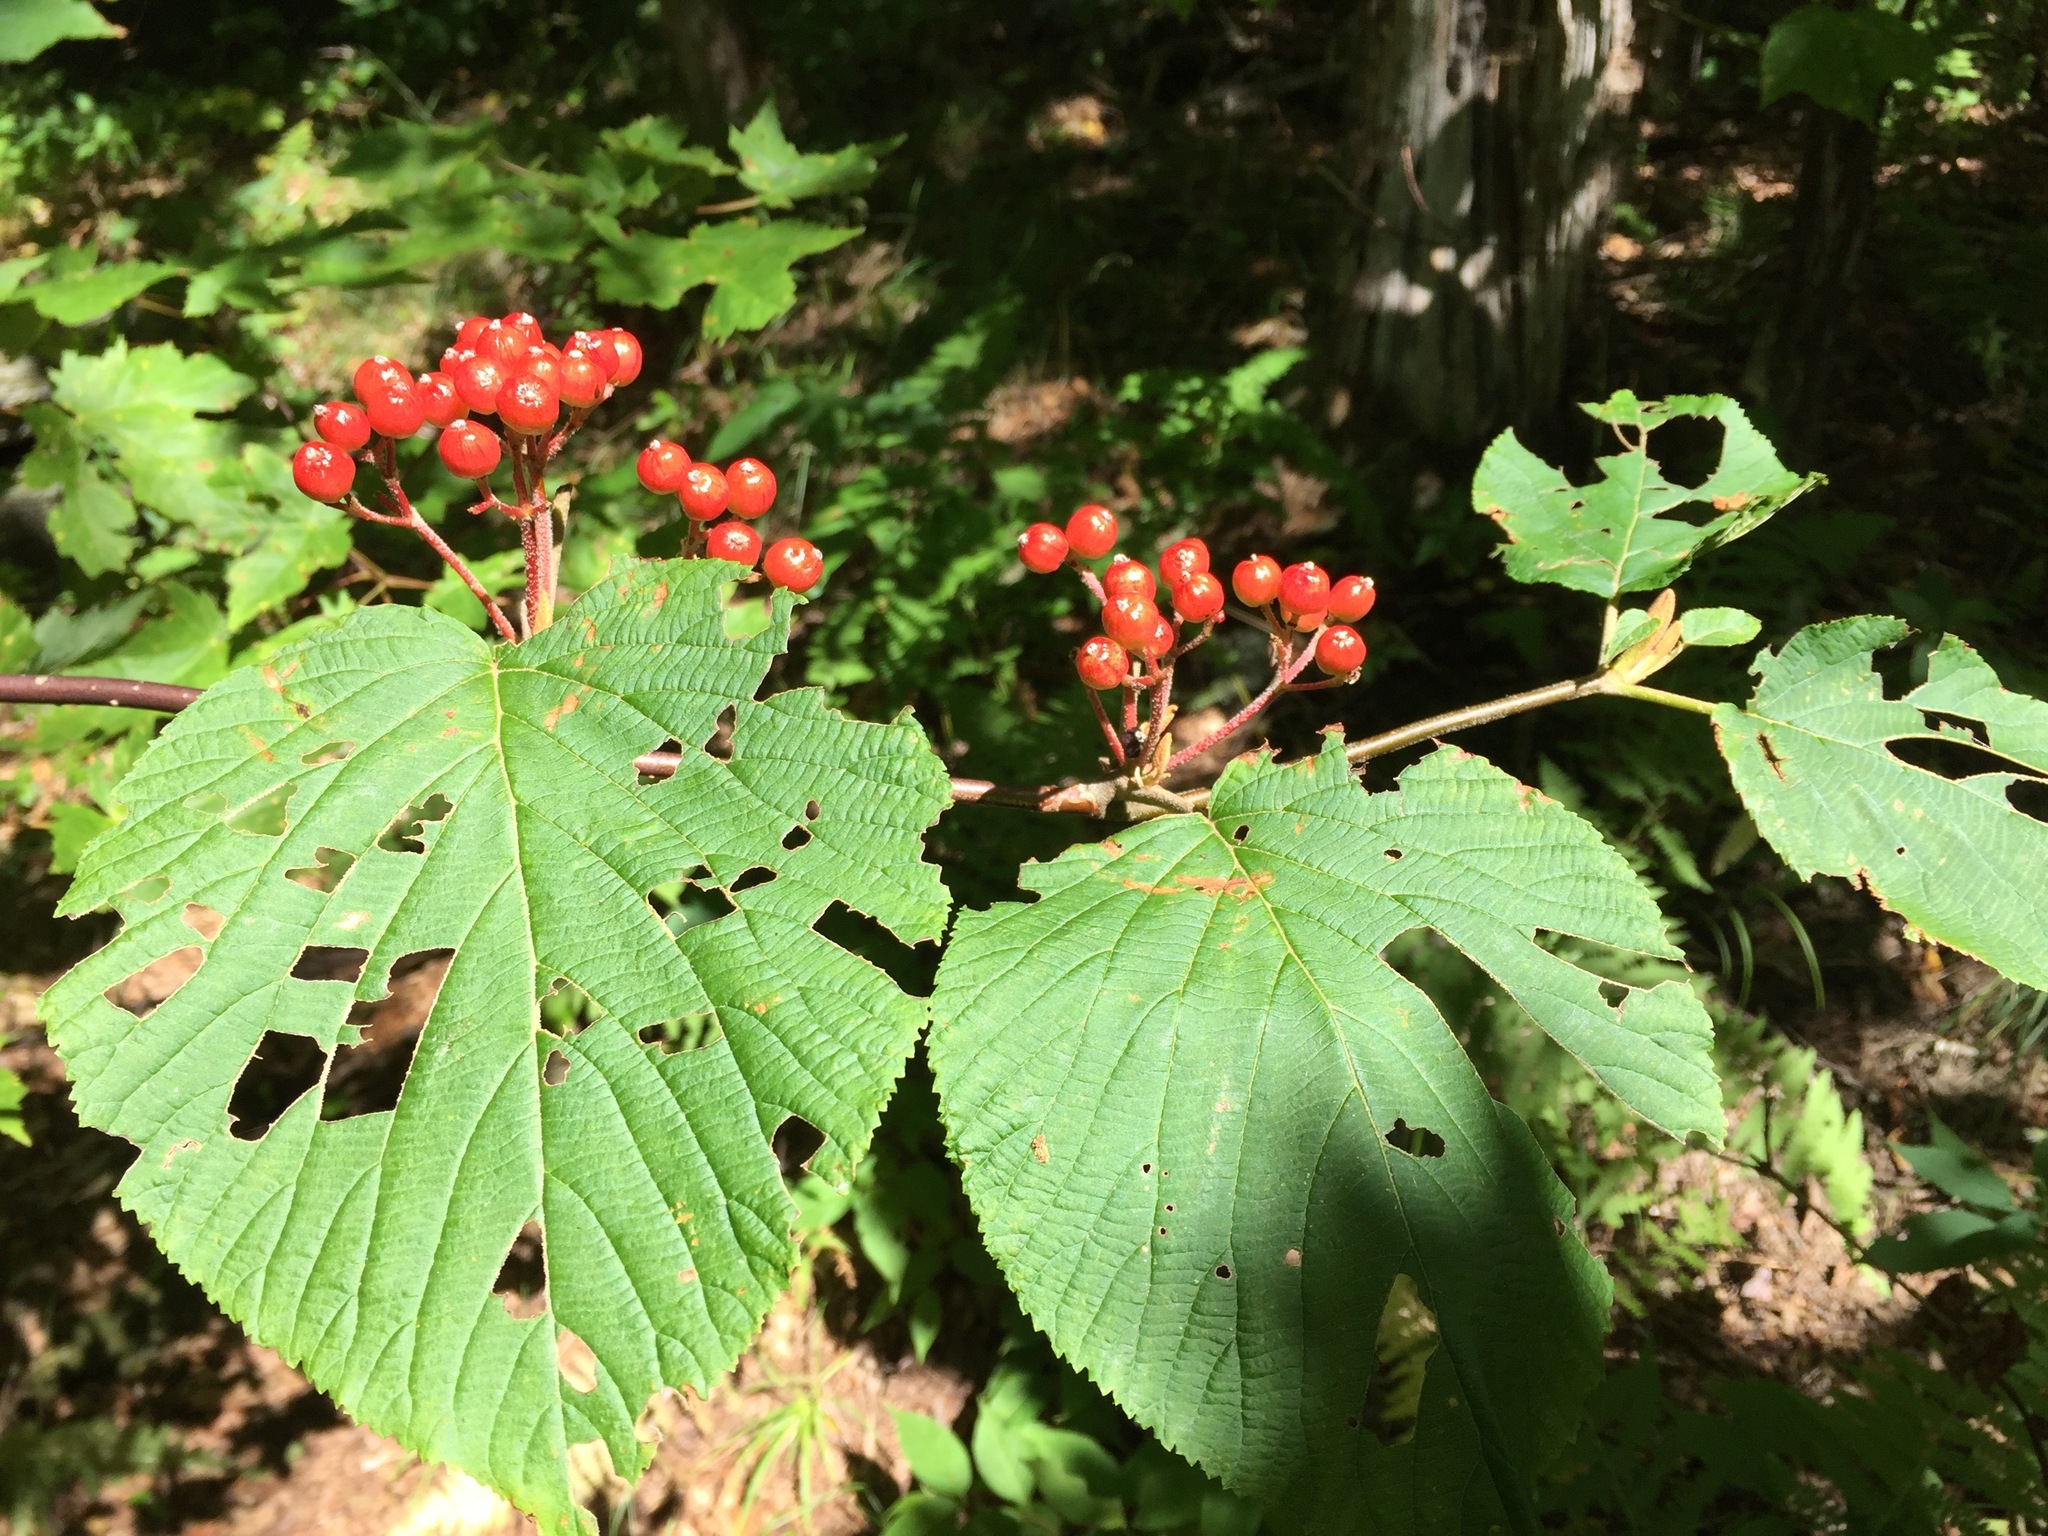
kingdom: Plantae
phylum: Tracheophyta
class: Magnoliopsida
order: Dipsacales
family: Viburnaceae
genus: Viburnum
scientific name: Viburnum lantanoides
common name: Hobblebush
